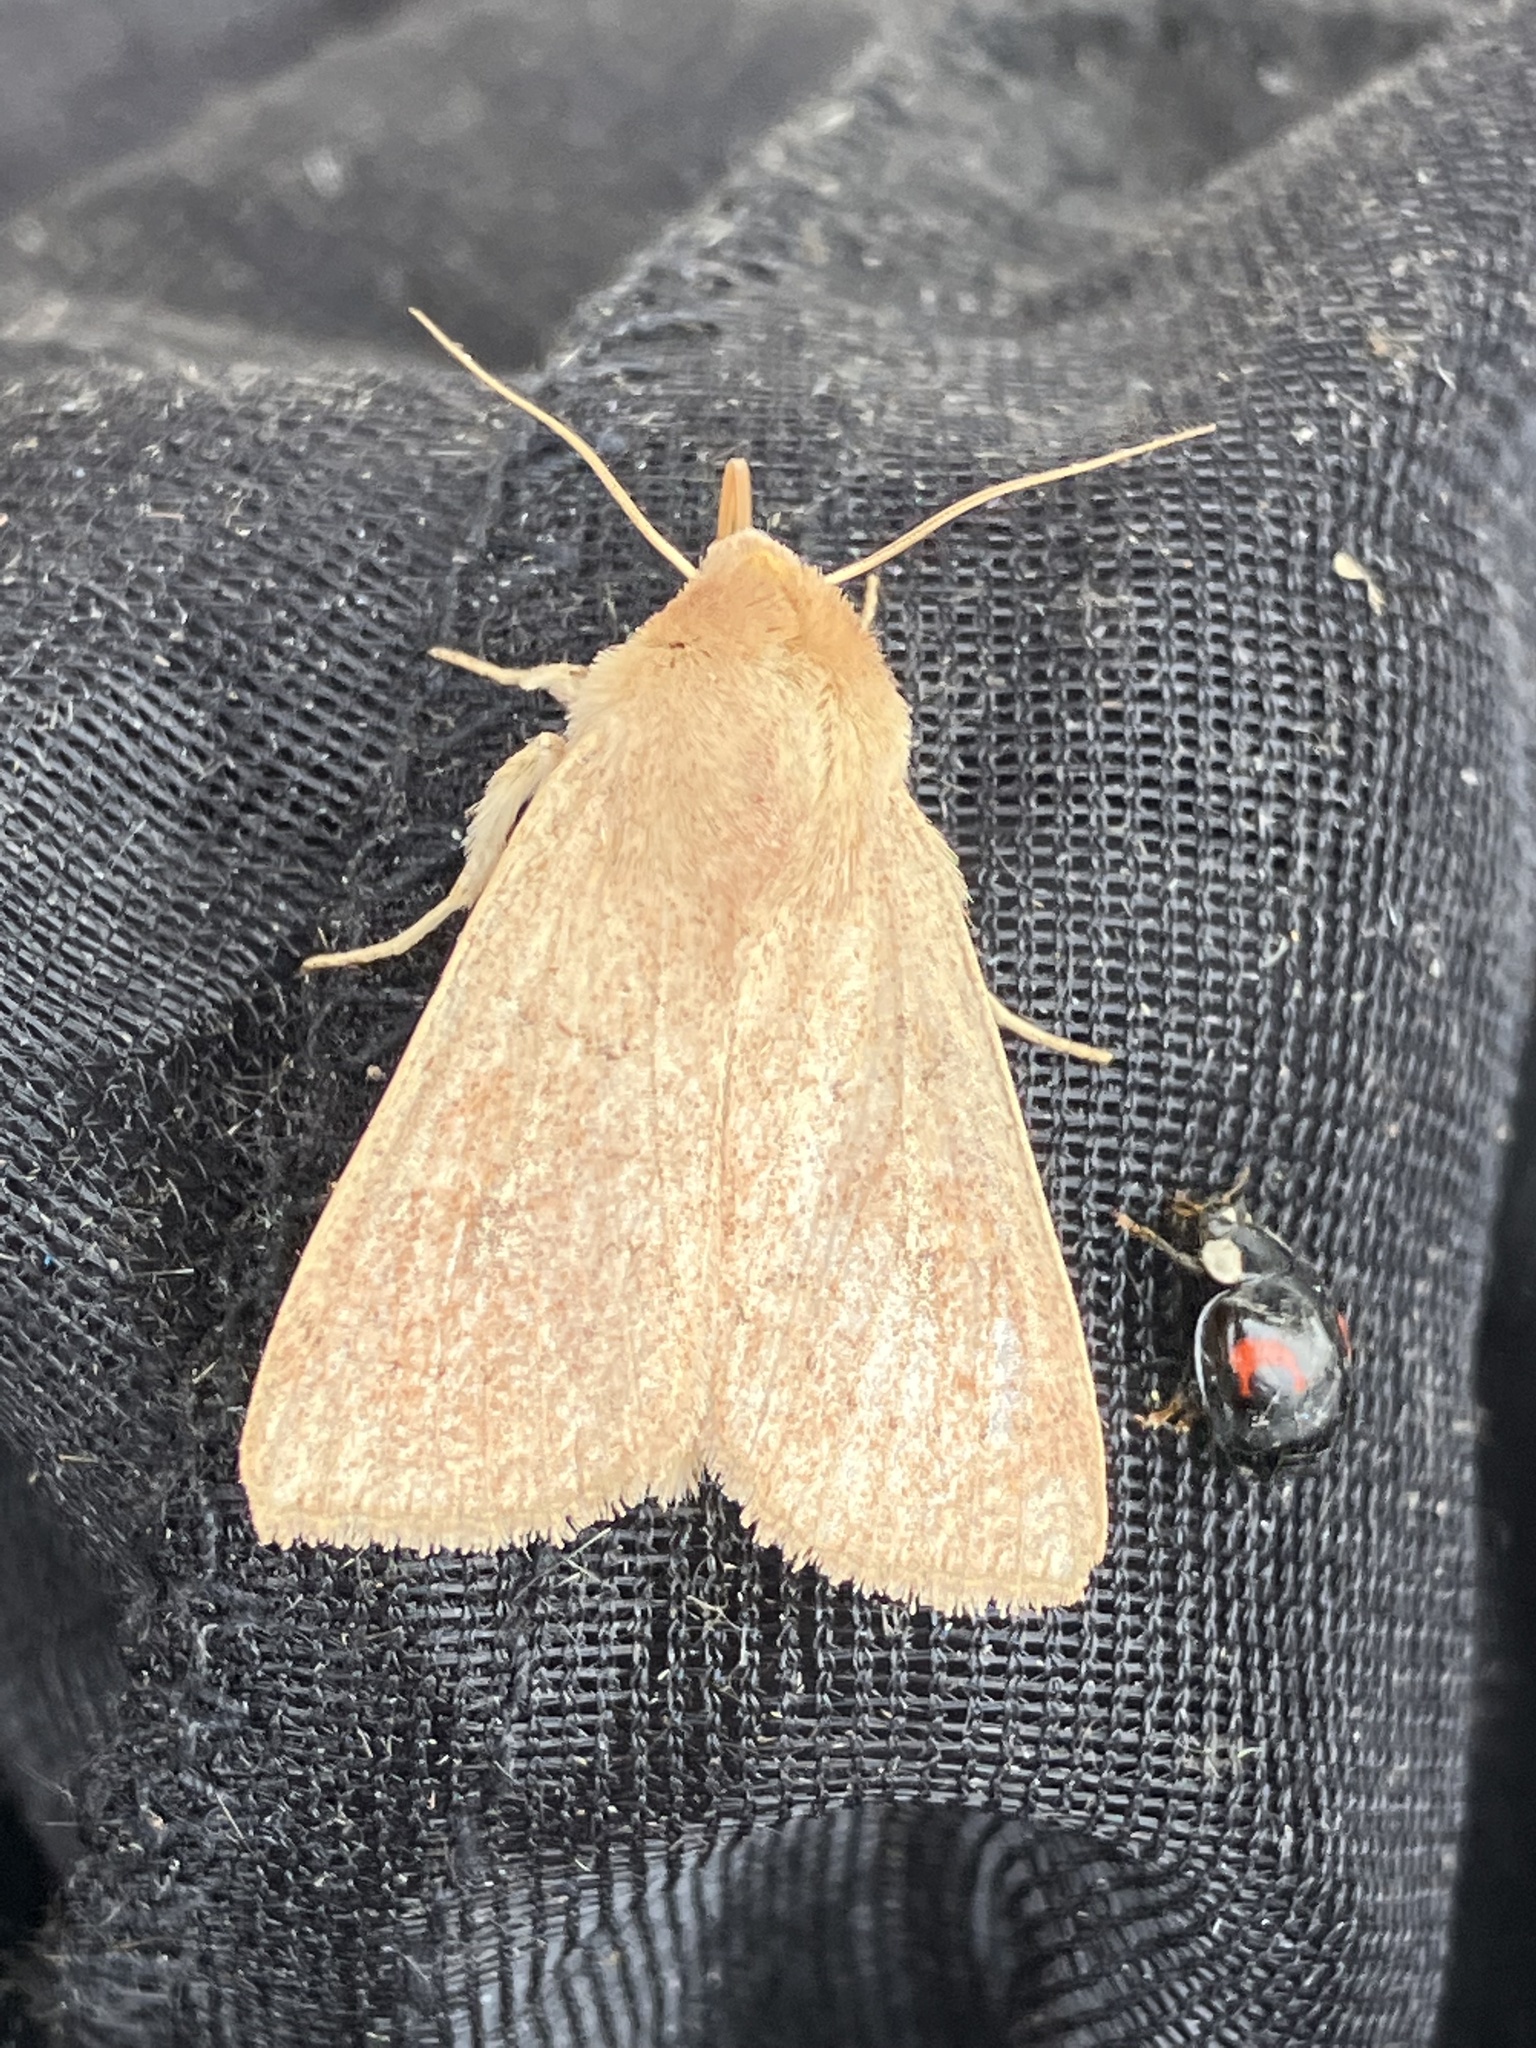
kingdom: Animalia
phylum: Arthropoda
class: Insecta
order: Lepidoptera
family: Noctuidae
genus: Mythimna
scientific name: Mythimna ferrago
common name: Clay
